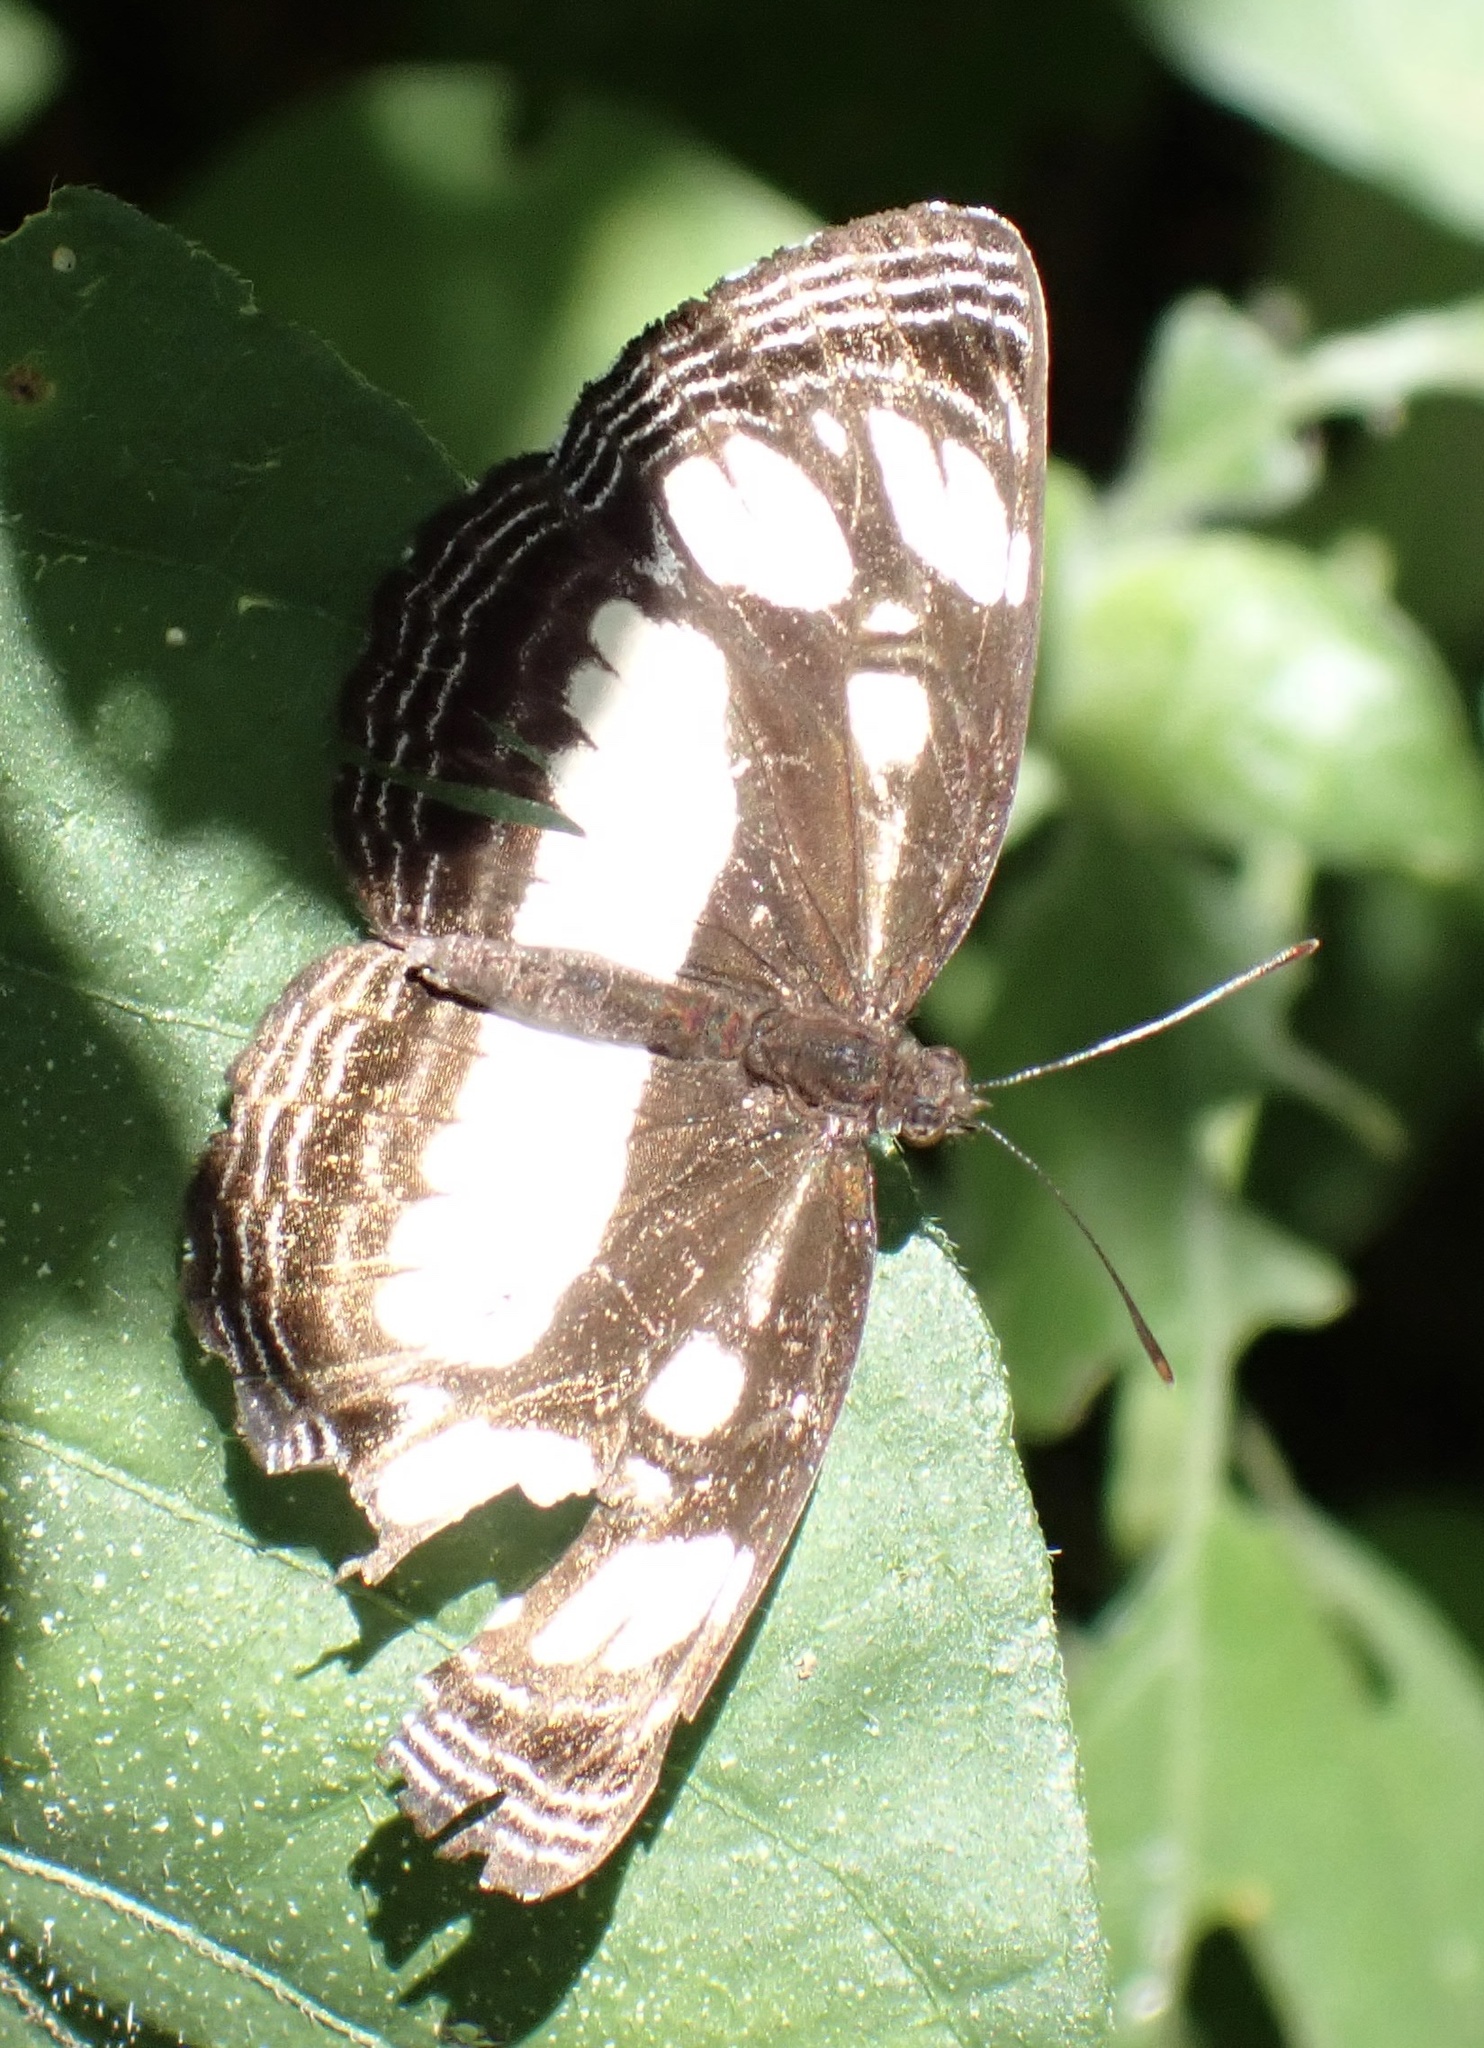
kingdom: Animalia
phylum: Arthropoda
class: Insecta
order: Lepidoptera
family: Nymphalidae
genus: Neptis
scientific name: Neptis goochii
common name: Streaked sailor
